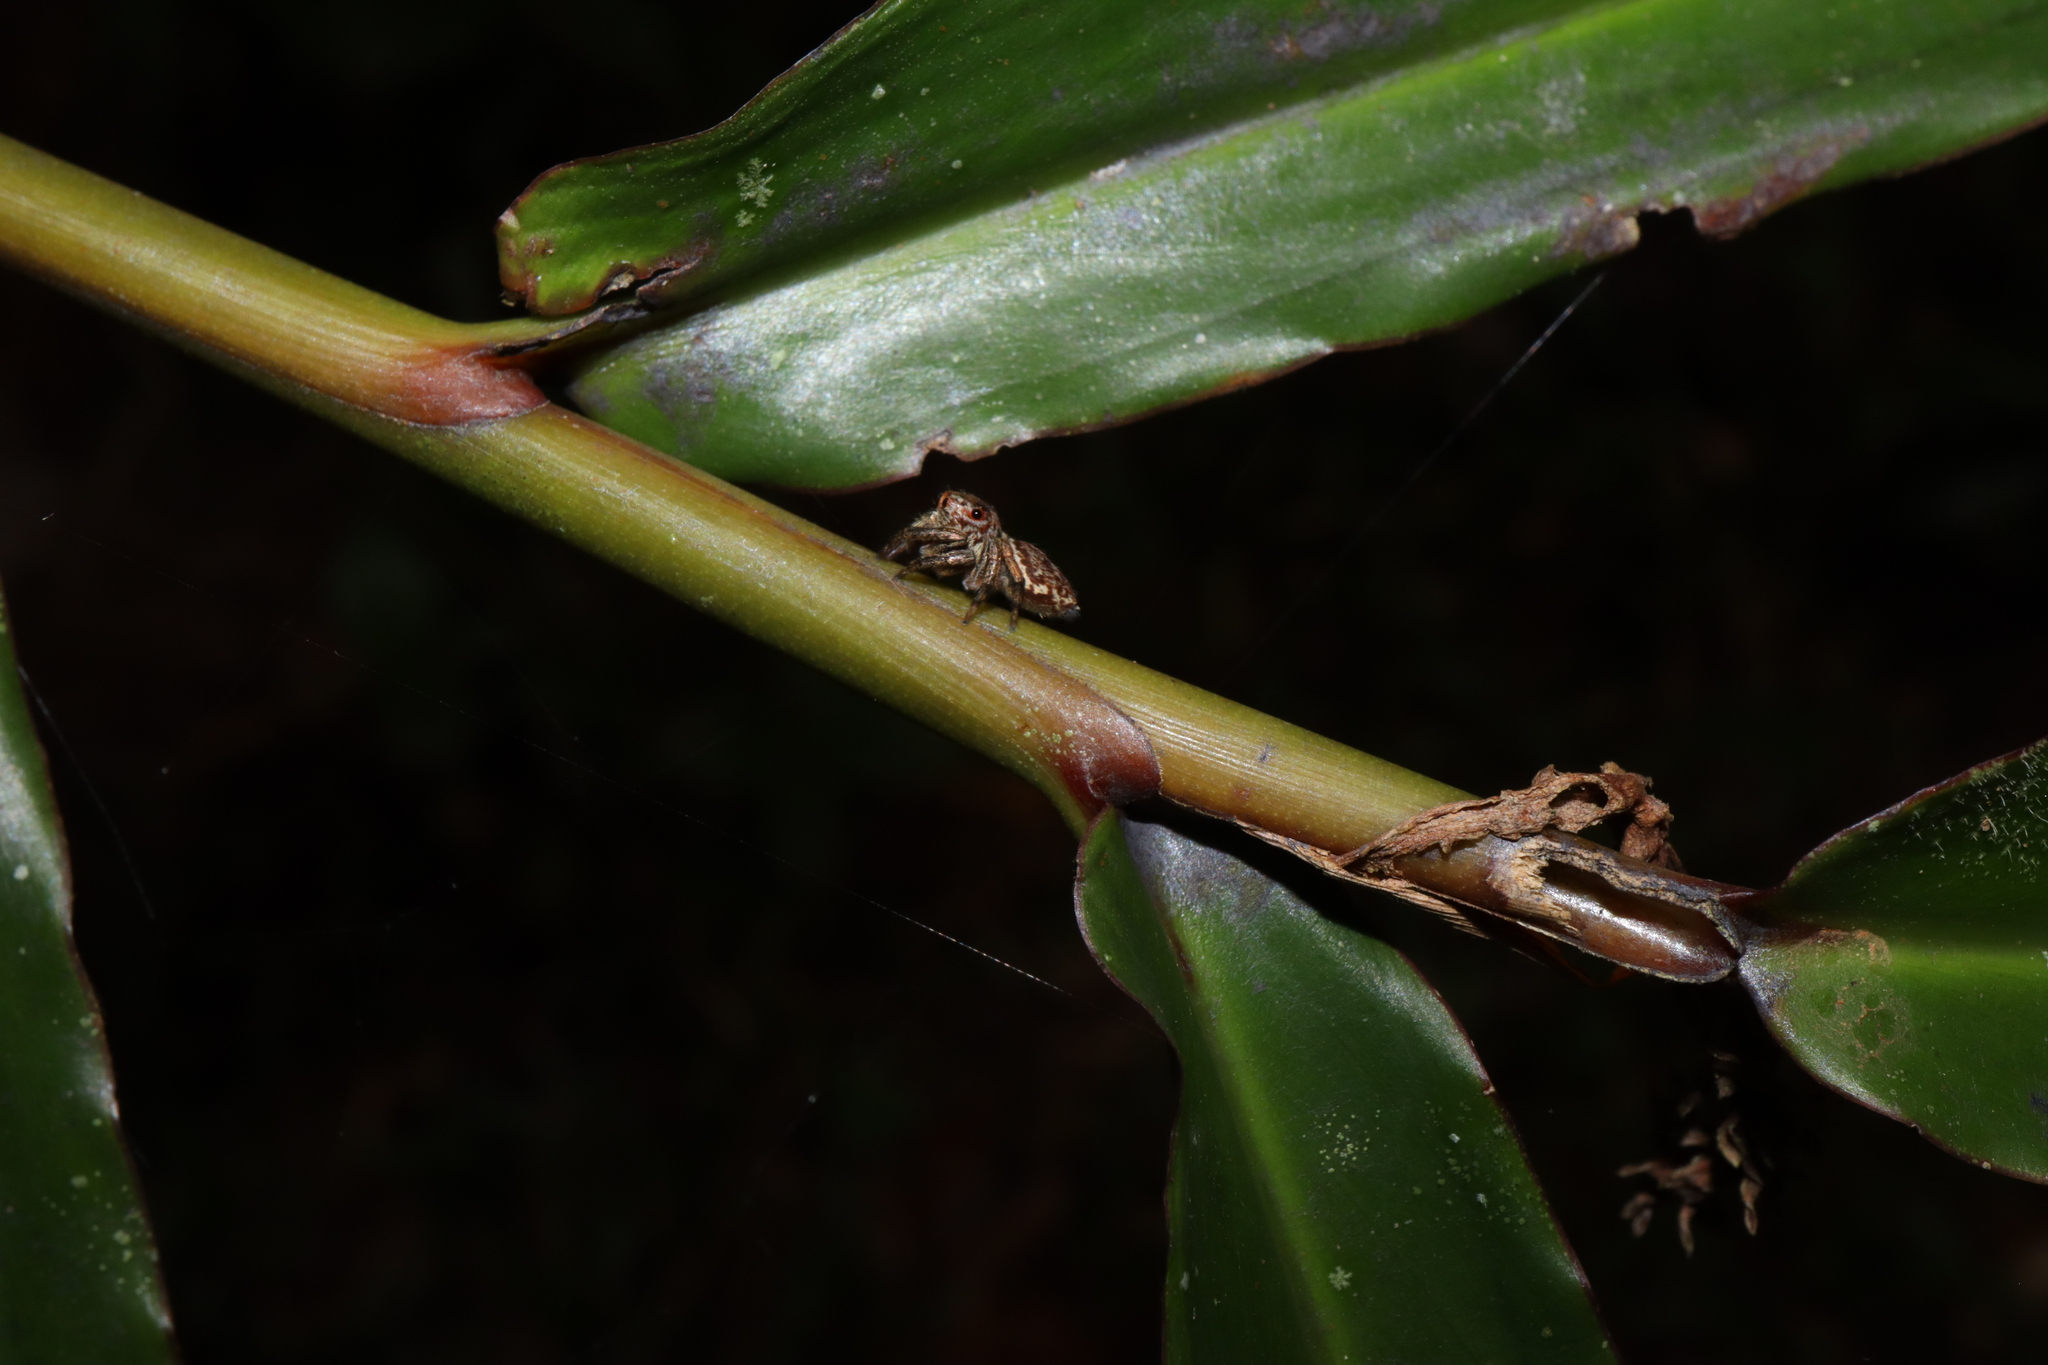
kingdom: Animalia
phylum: Arthropoda
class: Arachnida
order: Araneae
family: Salticidae
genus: Euryattus
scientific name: Euryattus bleekeri
